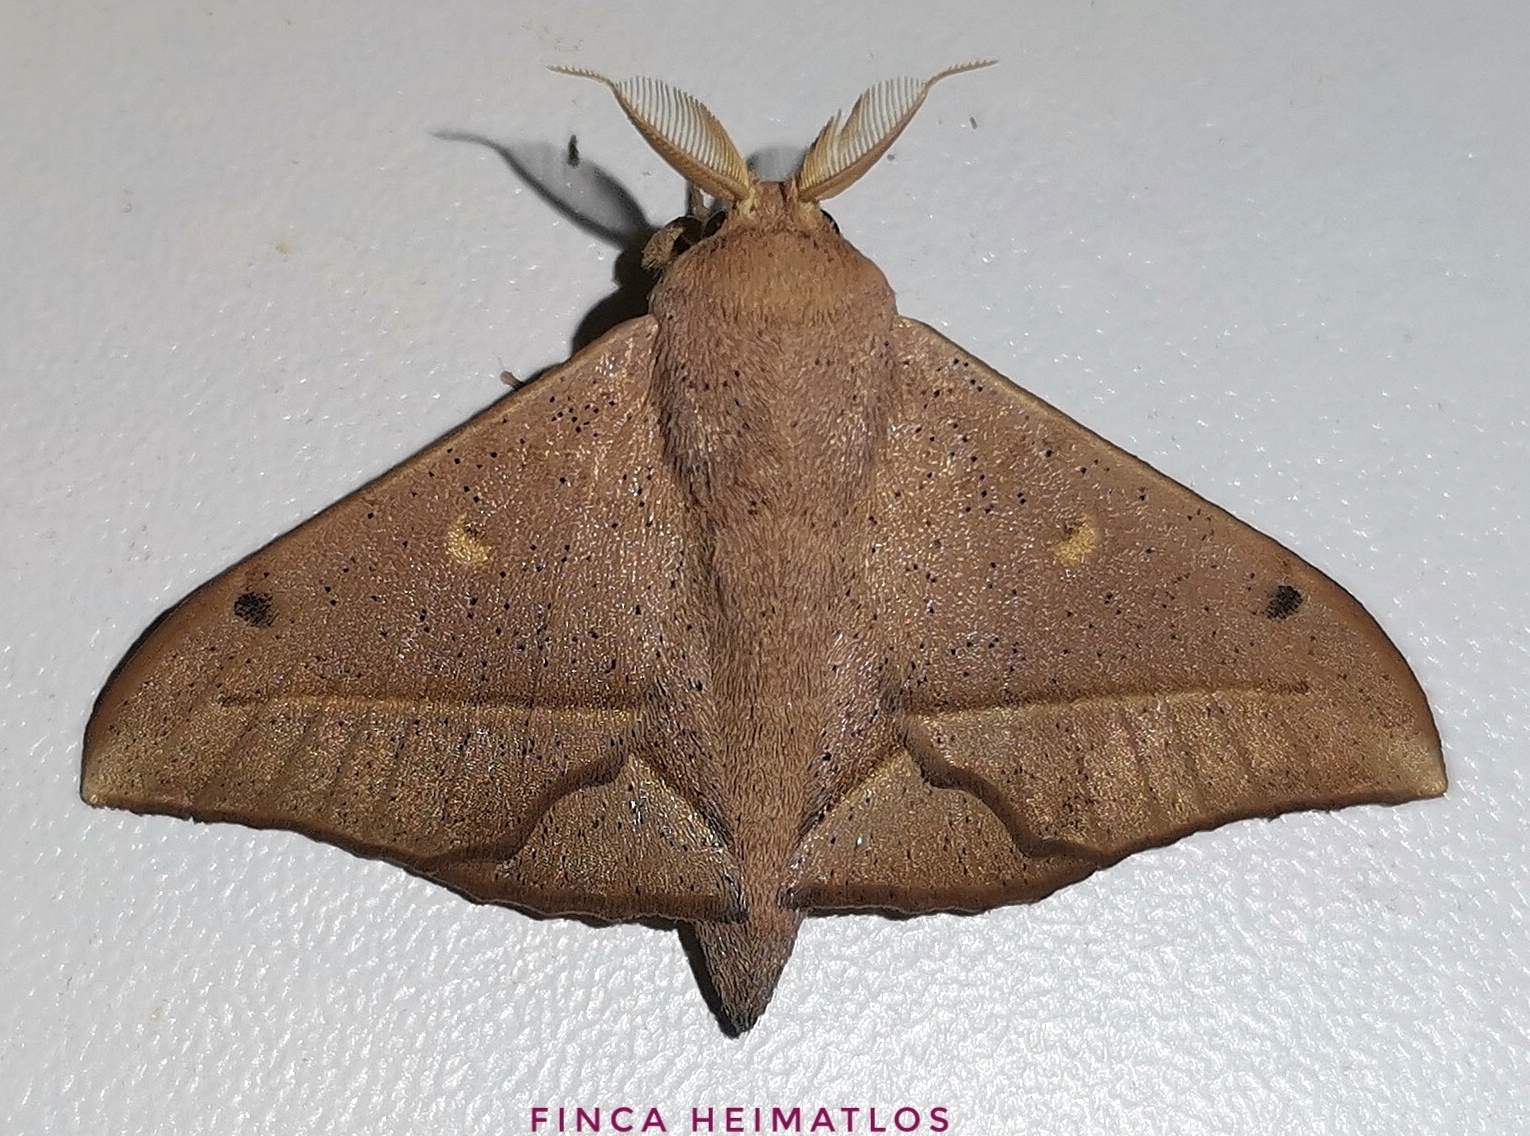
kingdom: Animalia
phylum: Arthropoda
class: Insecta
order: Lepidoptera
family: Mimallonidae
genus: Druentica
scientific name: Druentica partha
